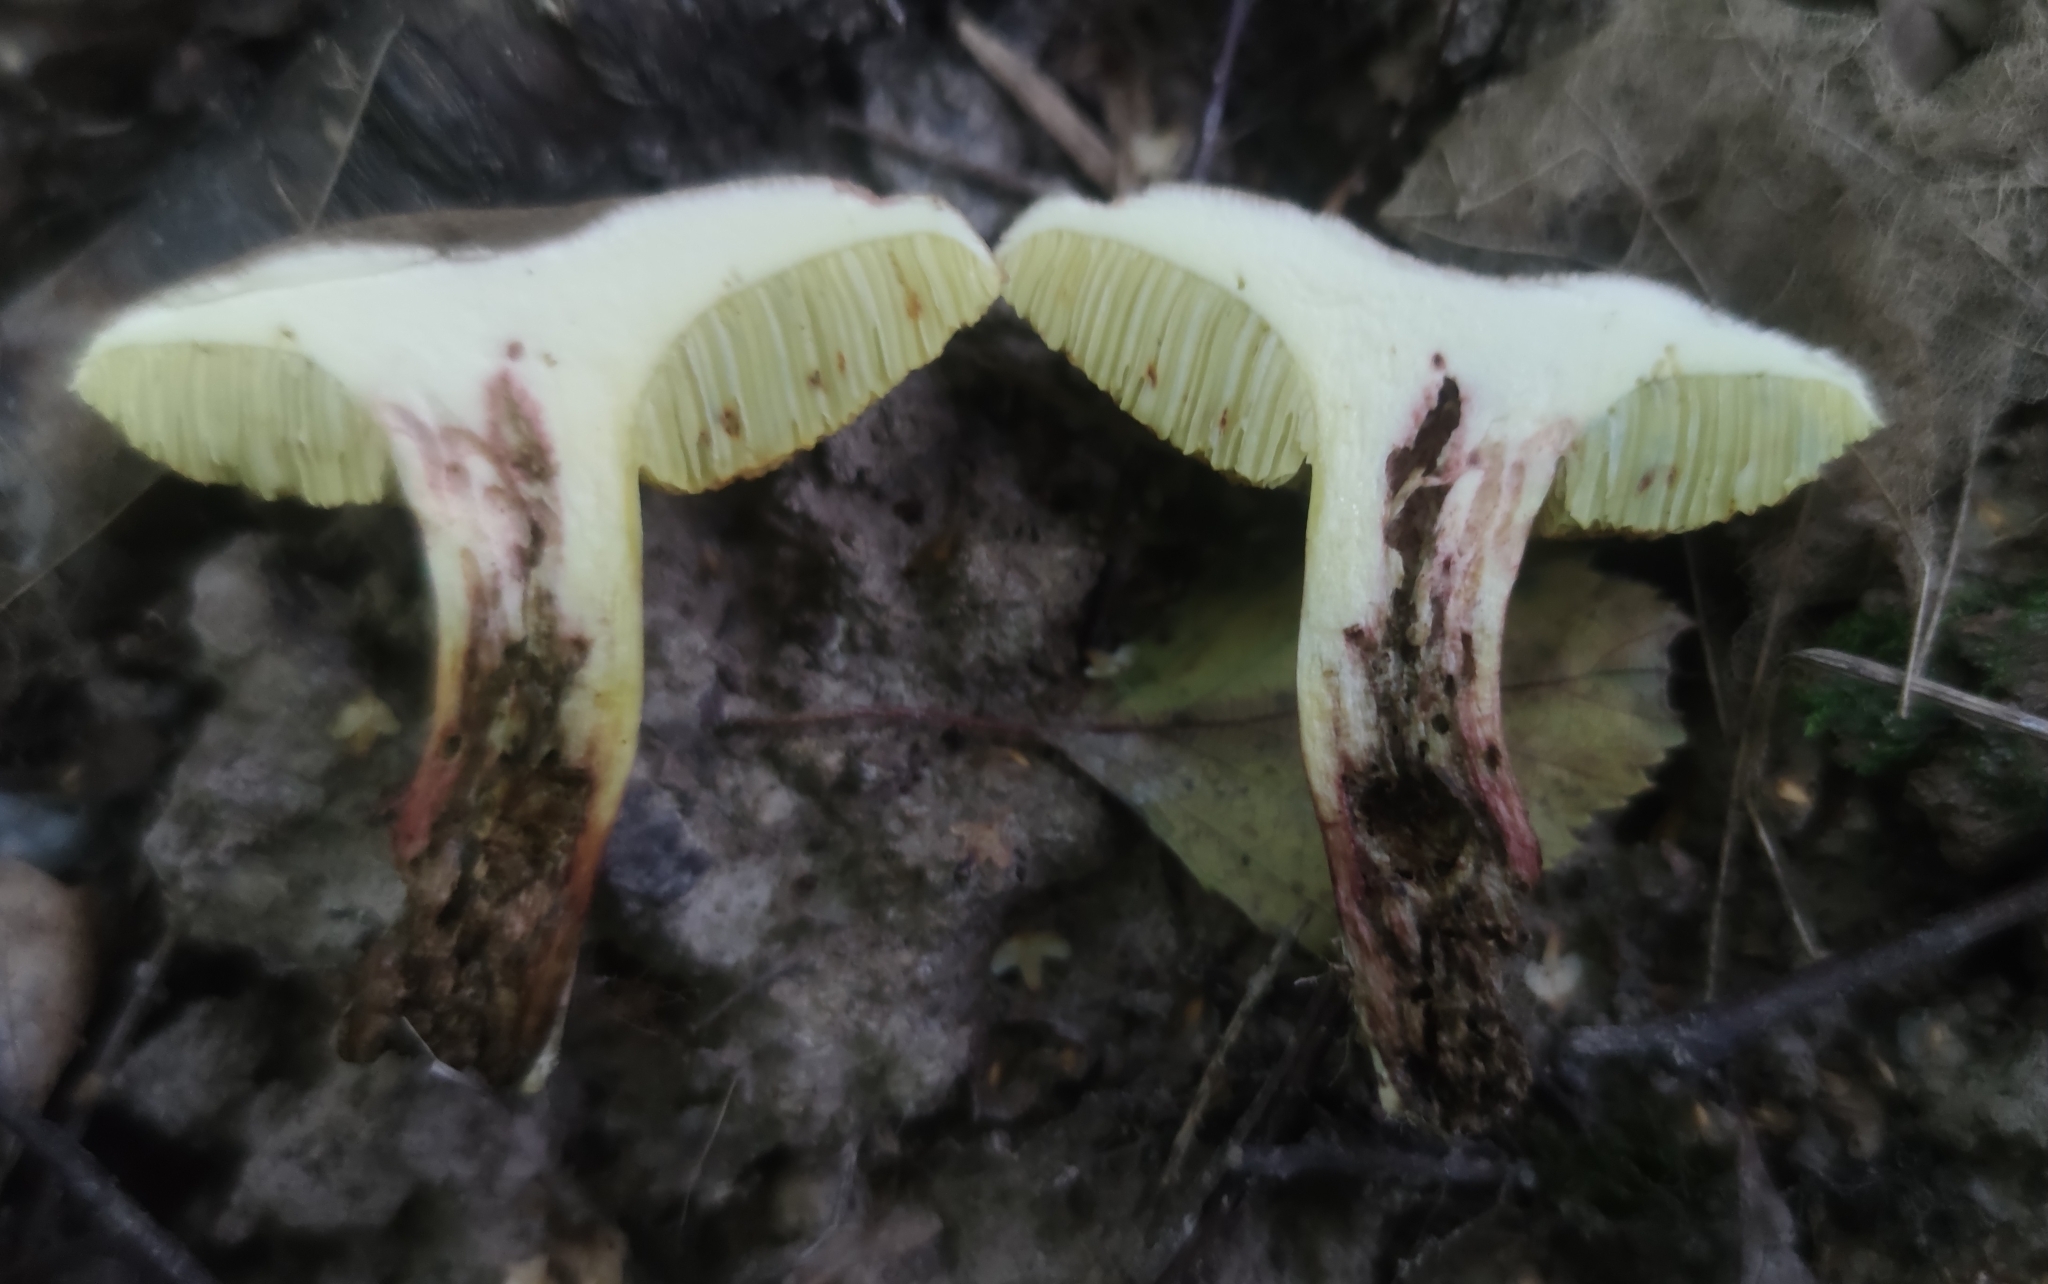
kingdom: Fungi
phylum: Basidiomycota
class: Agaricomycetes
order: Boletales
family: Boletaceae
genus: Xerocomellus
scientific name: Xerocomellus chrysenteron
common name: Red-cracking bolete
